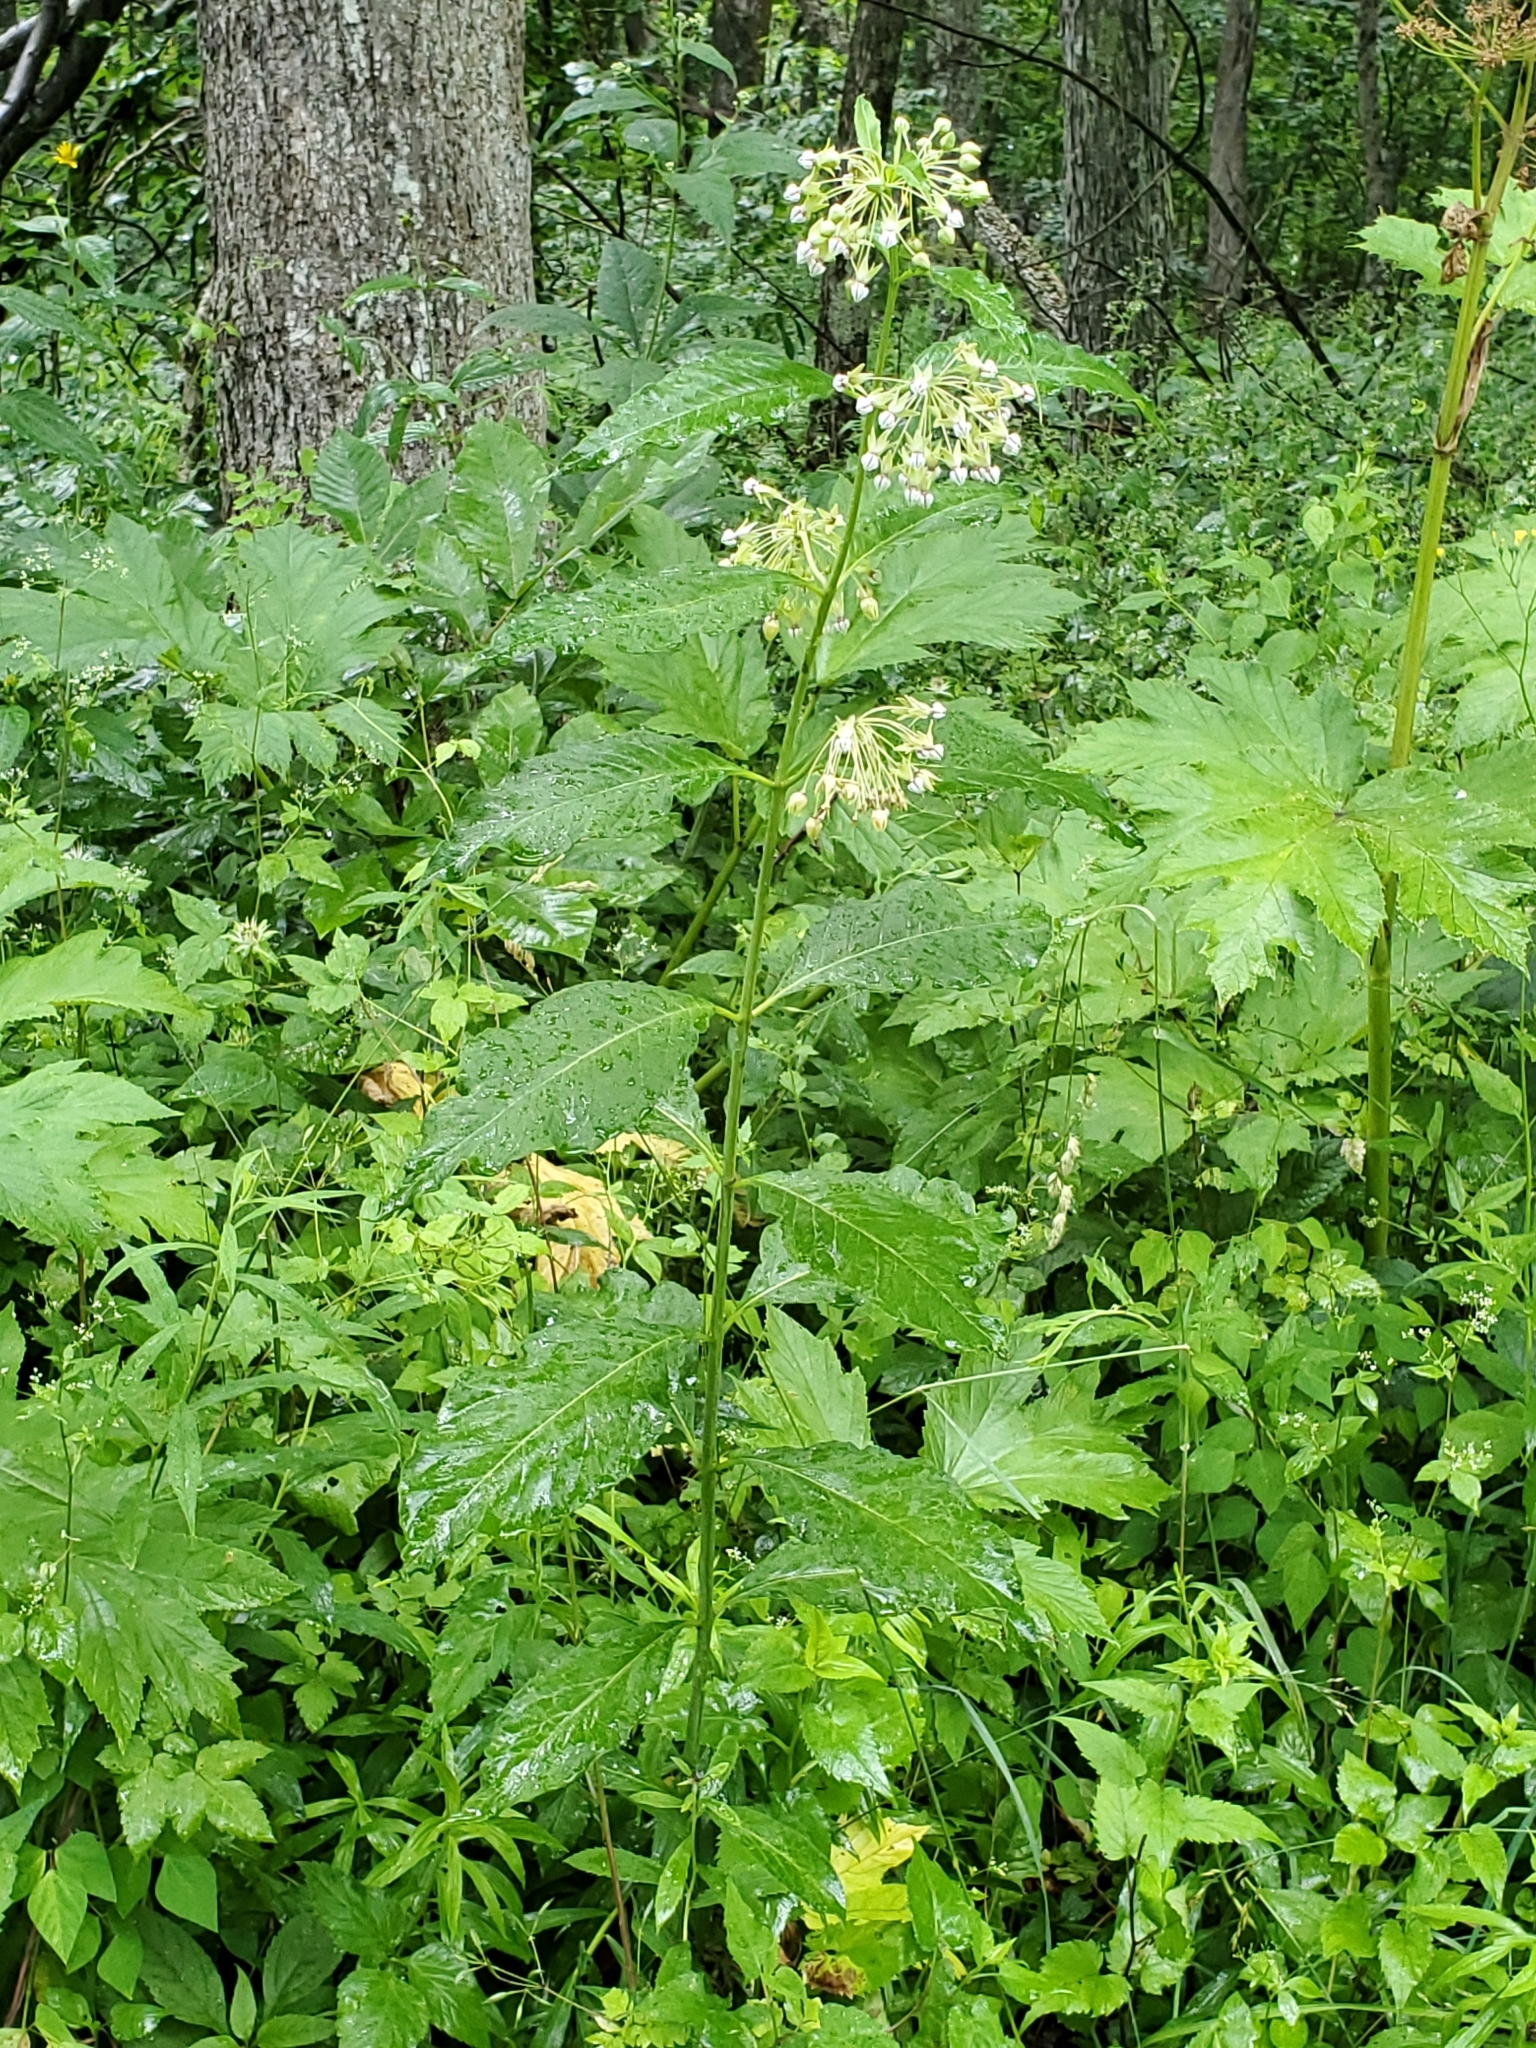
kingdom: Plantae
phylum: Tracheophyta
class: Magnoliopsida
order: Gentianales
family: Apocynaceae
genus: Asclepias
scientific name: Asclepias exaltata
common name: Poke milkweed
